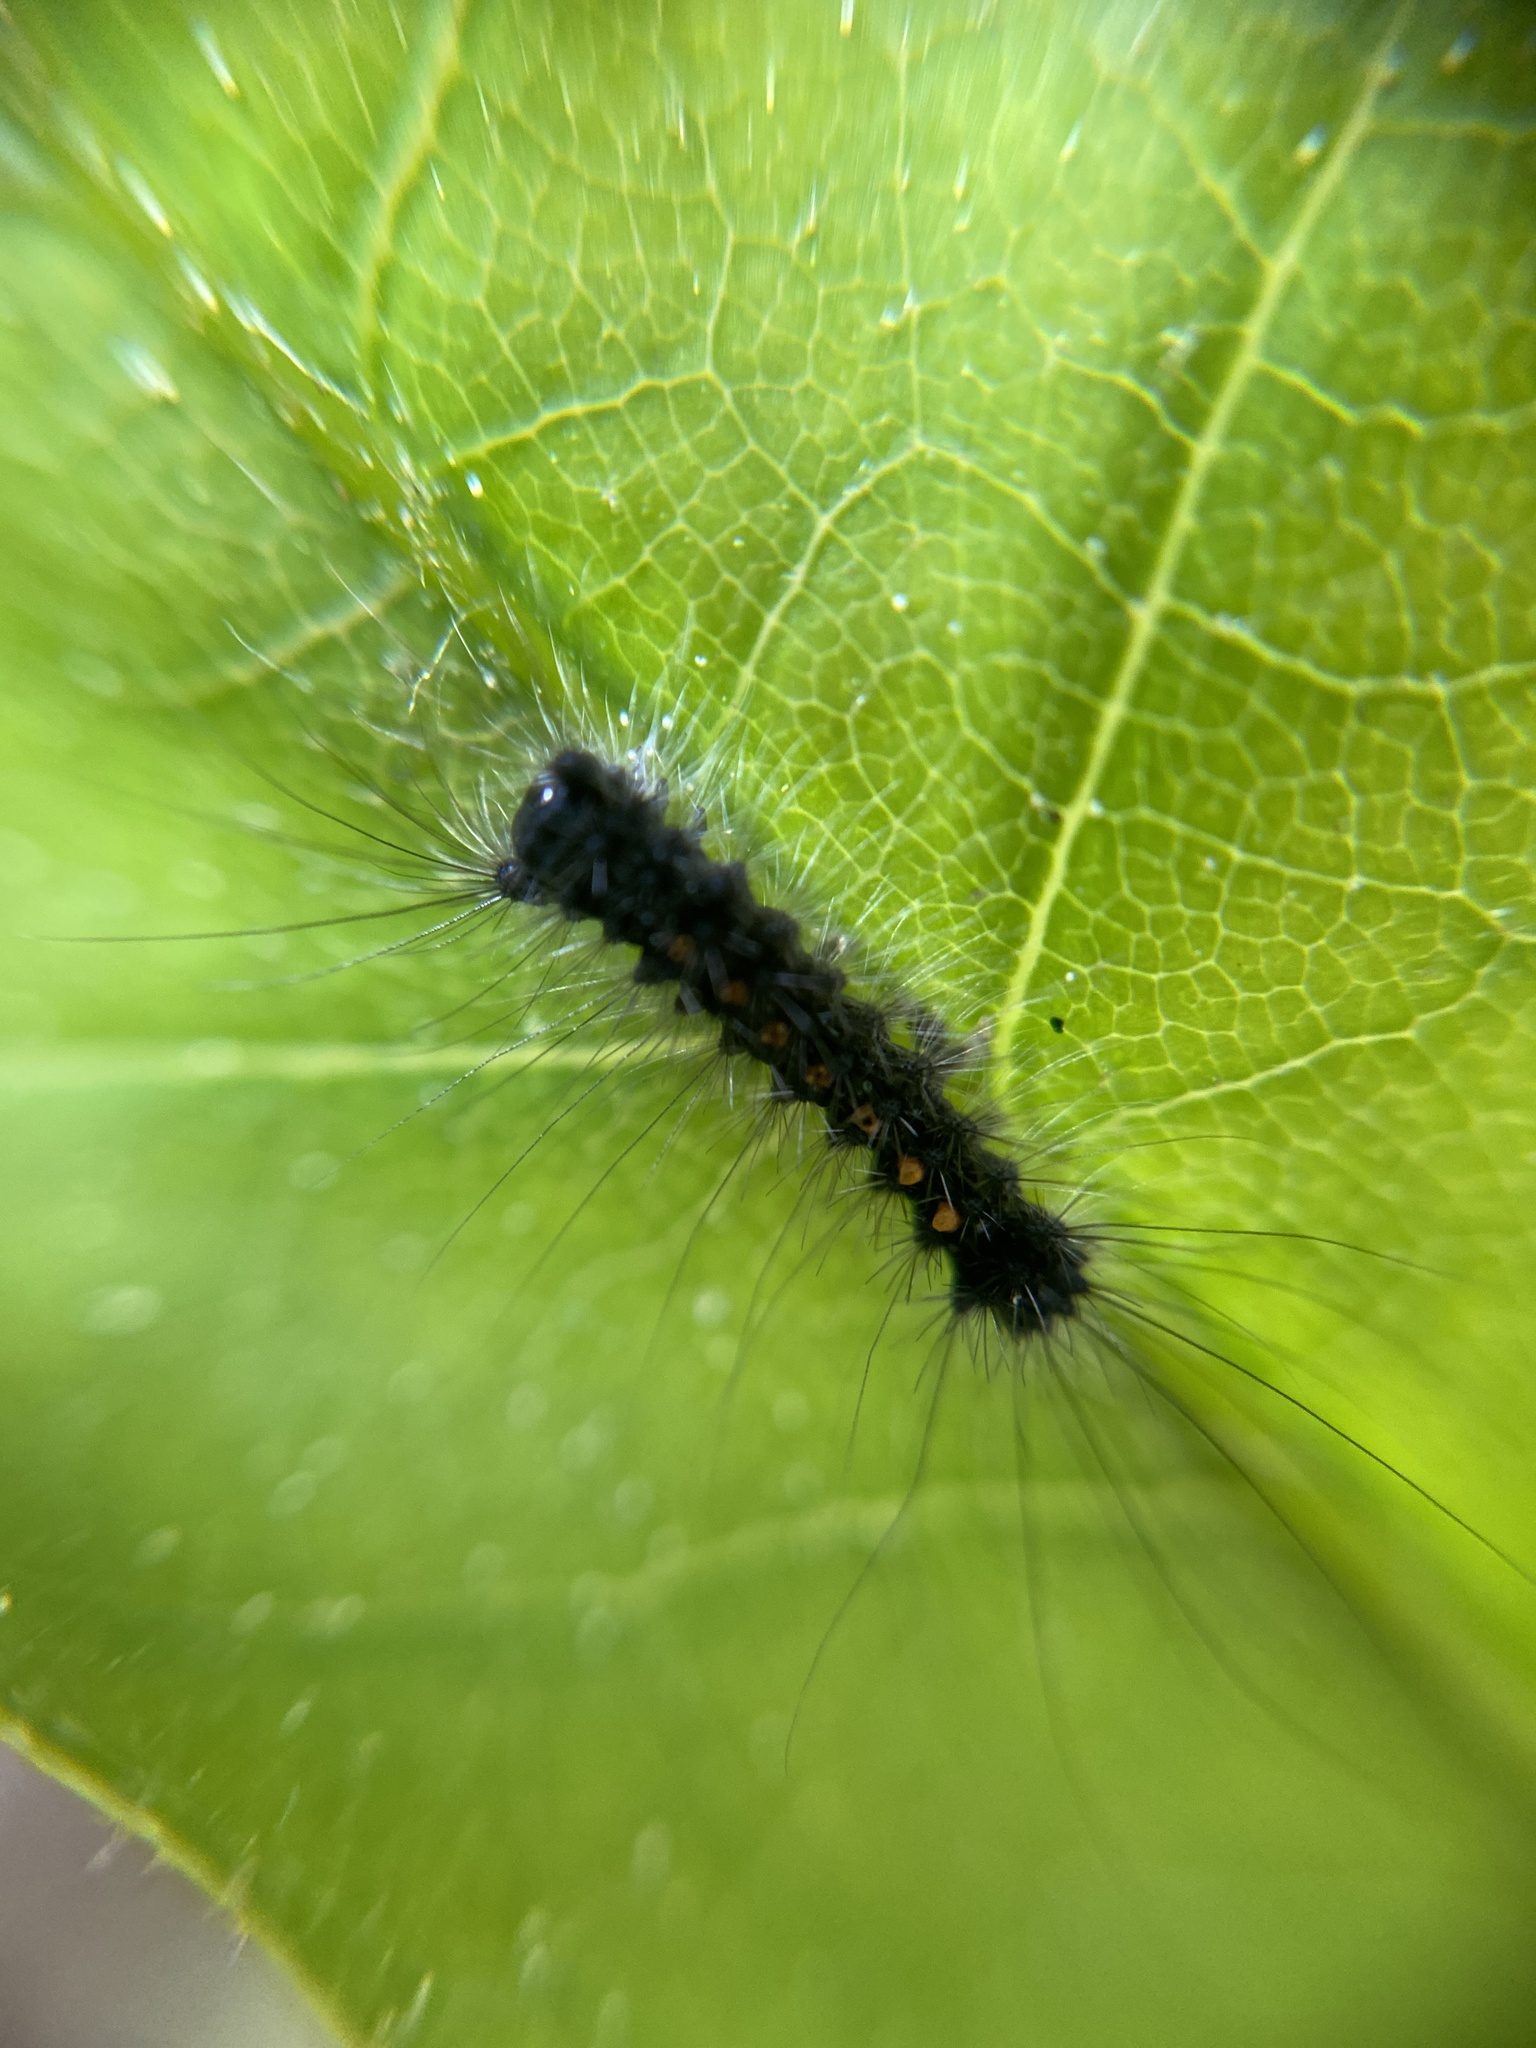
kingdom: Animalia
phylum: Arthropoda
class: Insecta
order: Lepidoptera
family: Erebidae
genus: Lymantria
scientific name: Lymantria dispar
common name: Gypsy moth
